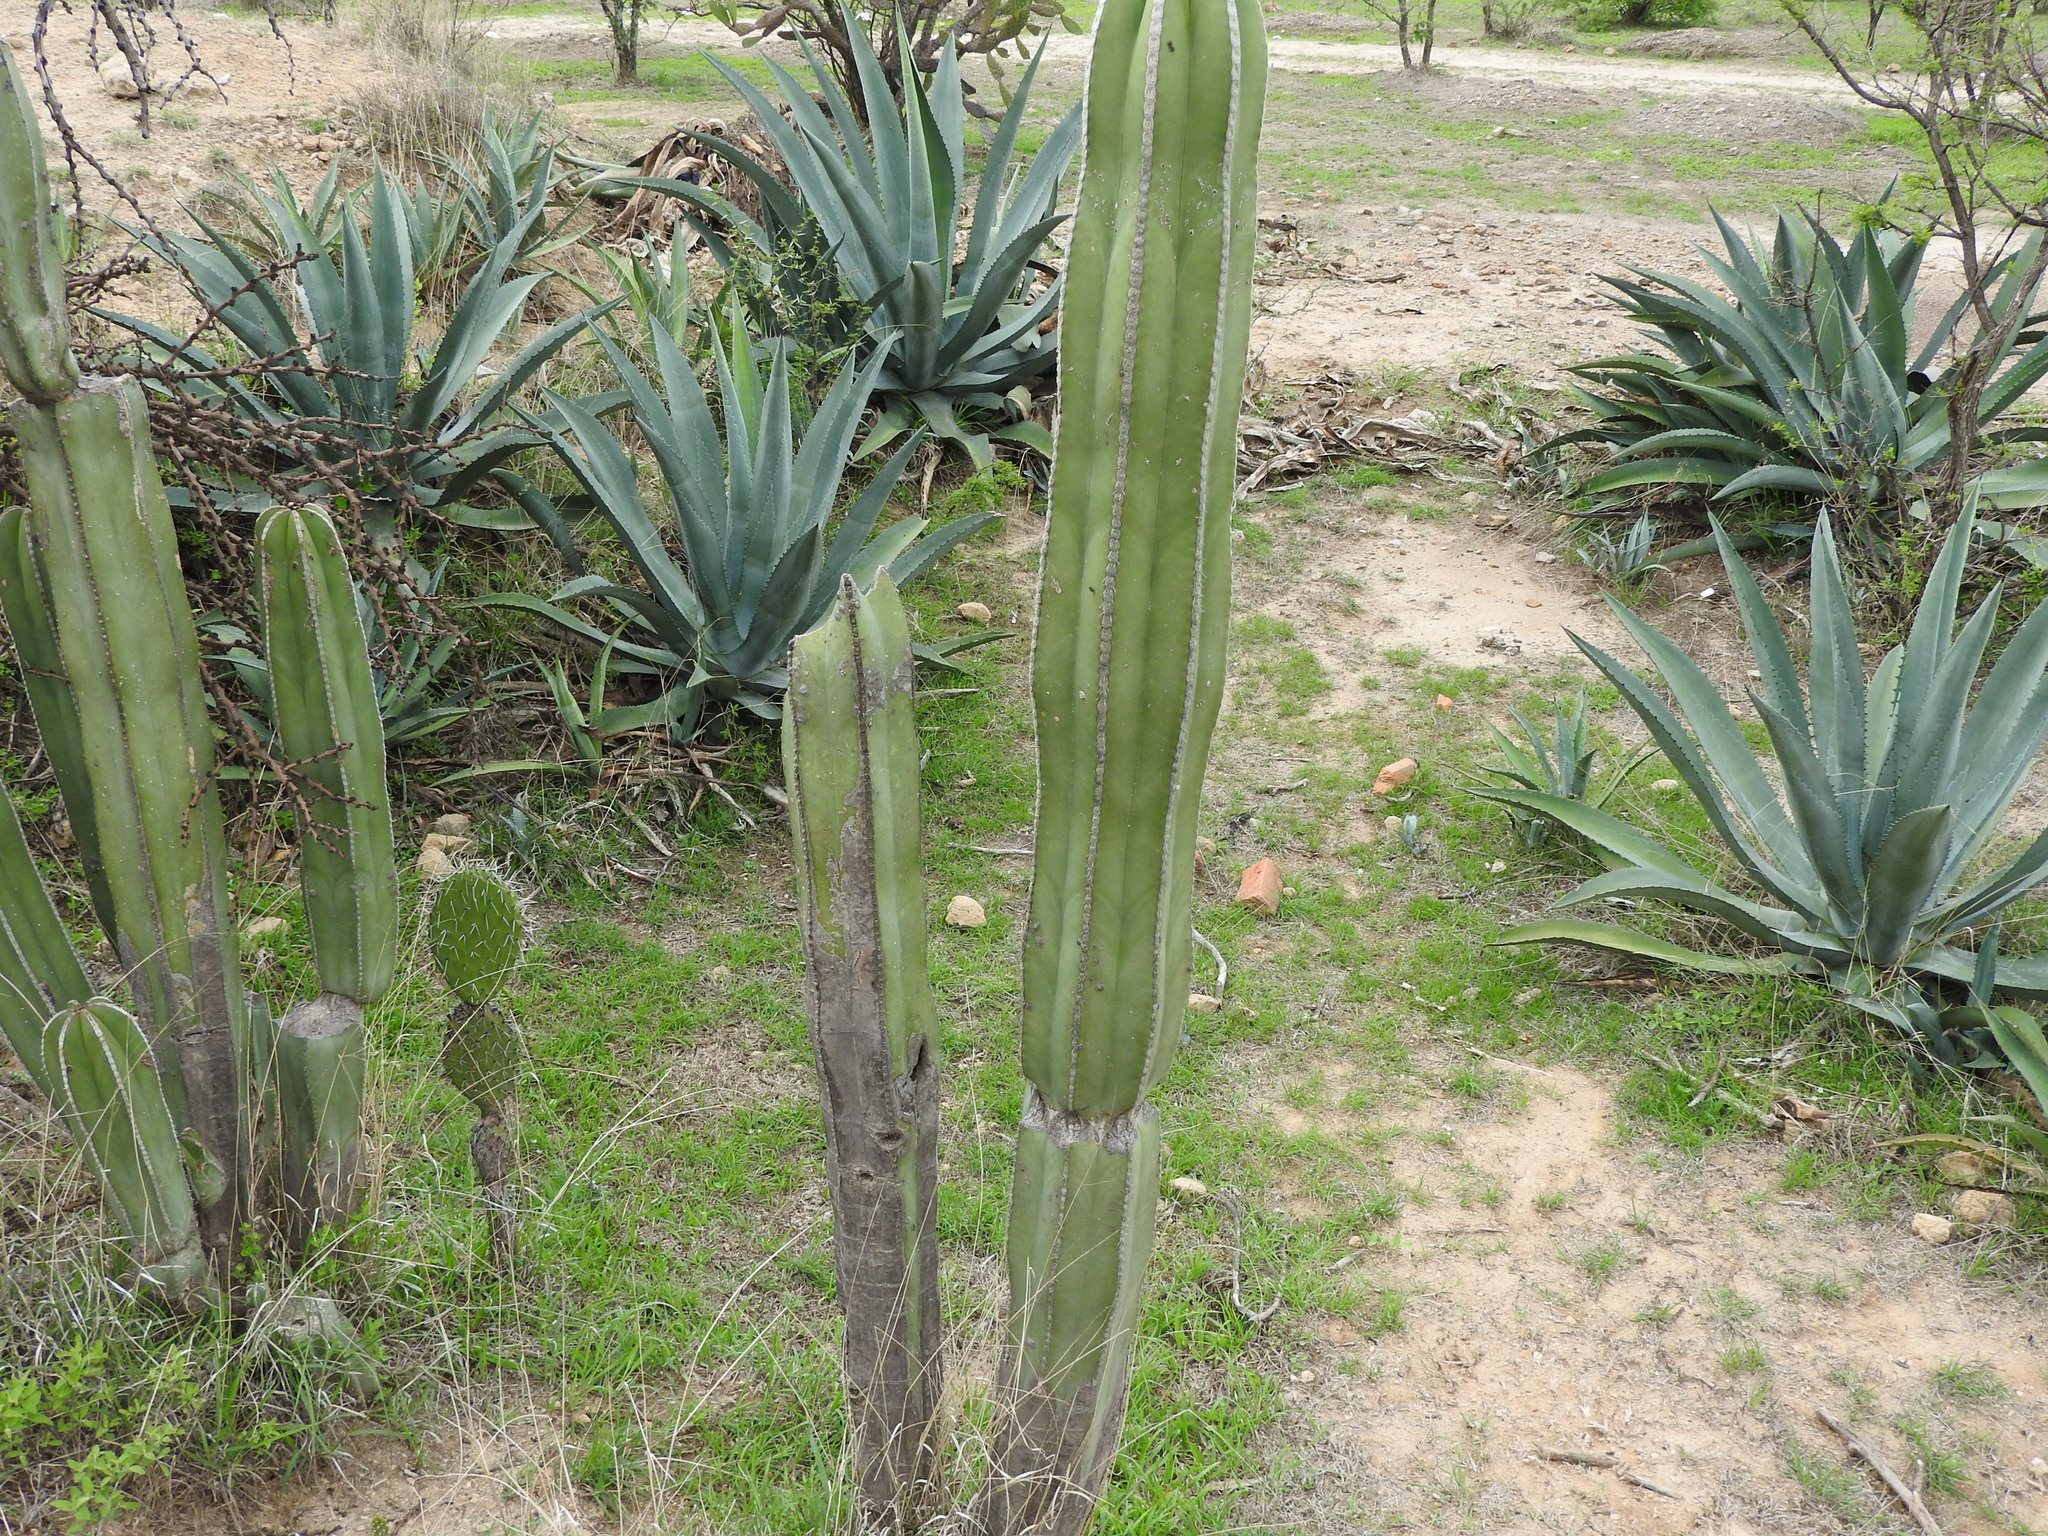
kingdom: Plantae
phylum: Tracheophyta
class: Magnoliopsida
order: Caryophyllales
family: Cactaceae
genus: Marginatocereus
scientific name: Marginatocereus marginatus
